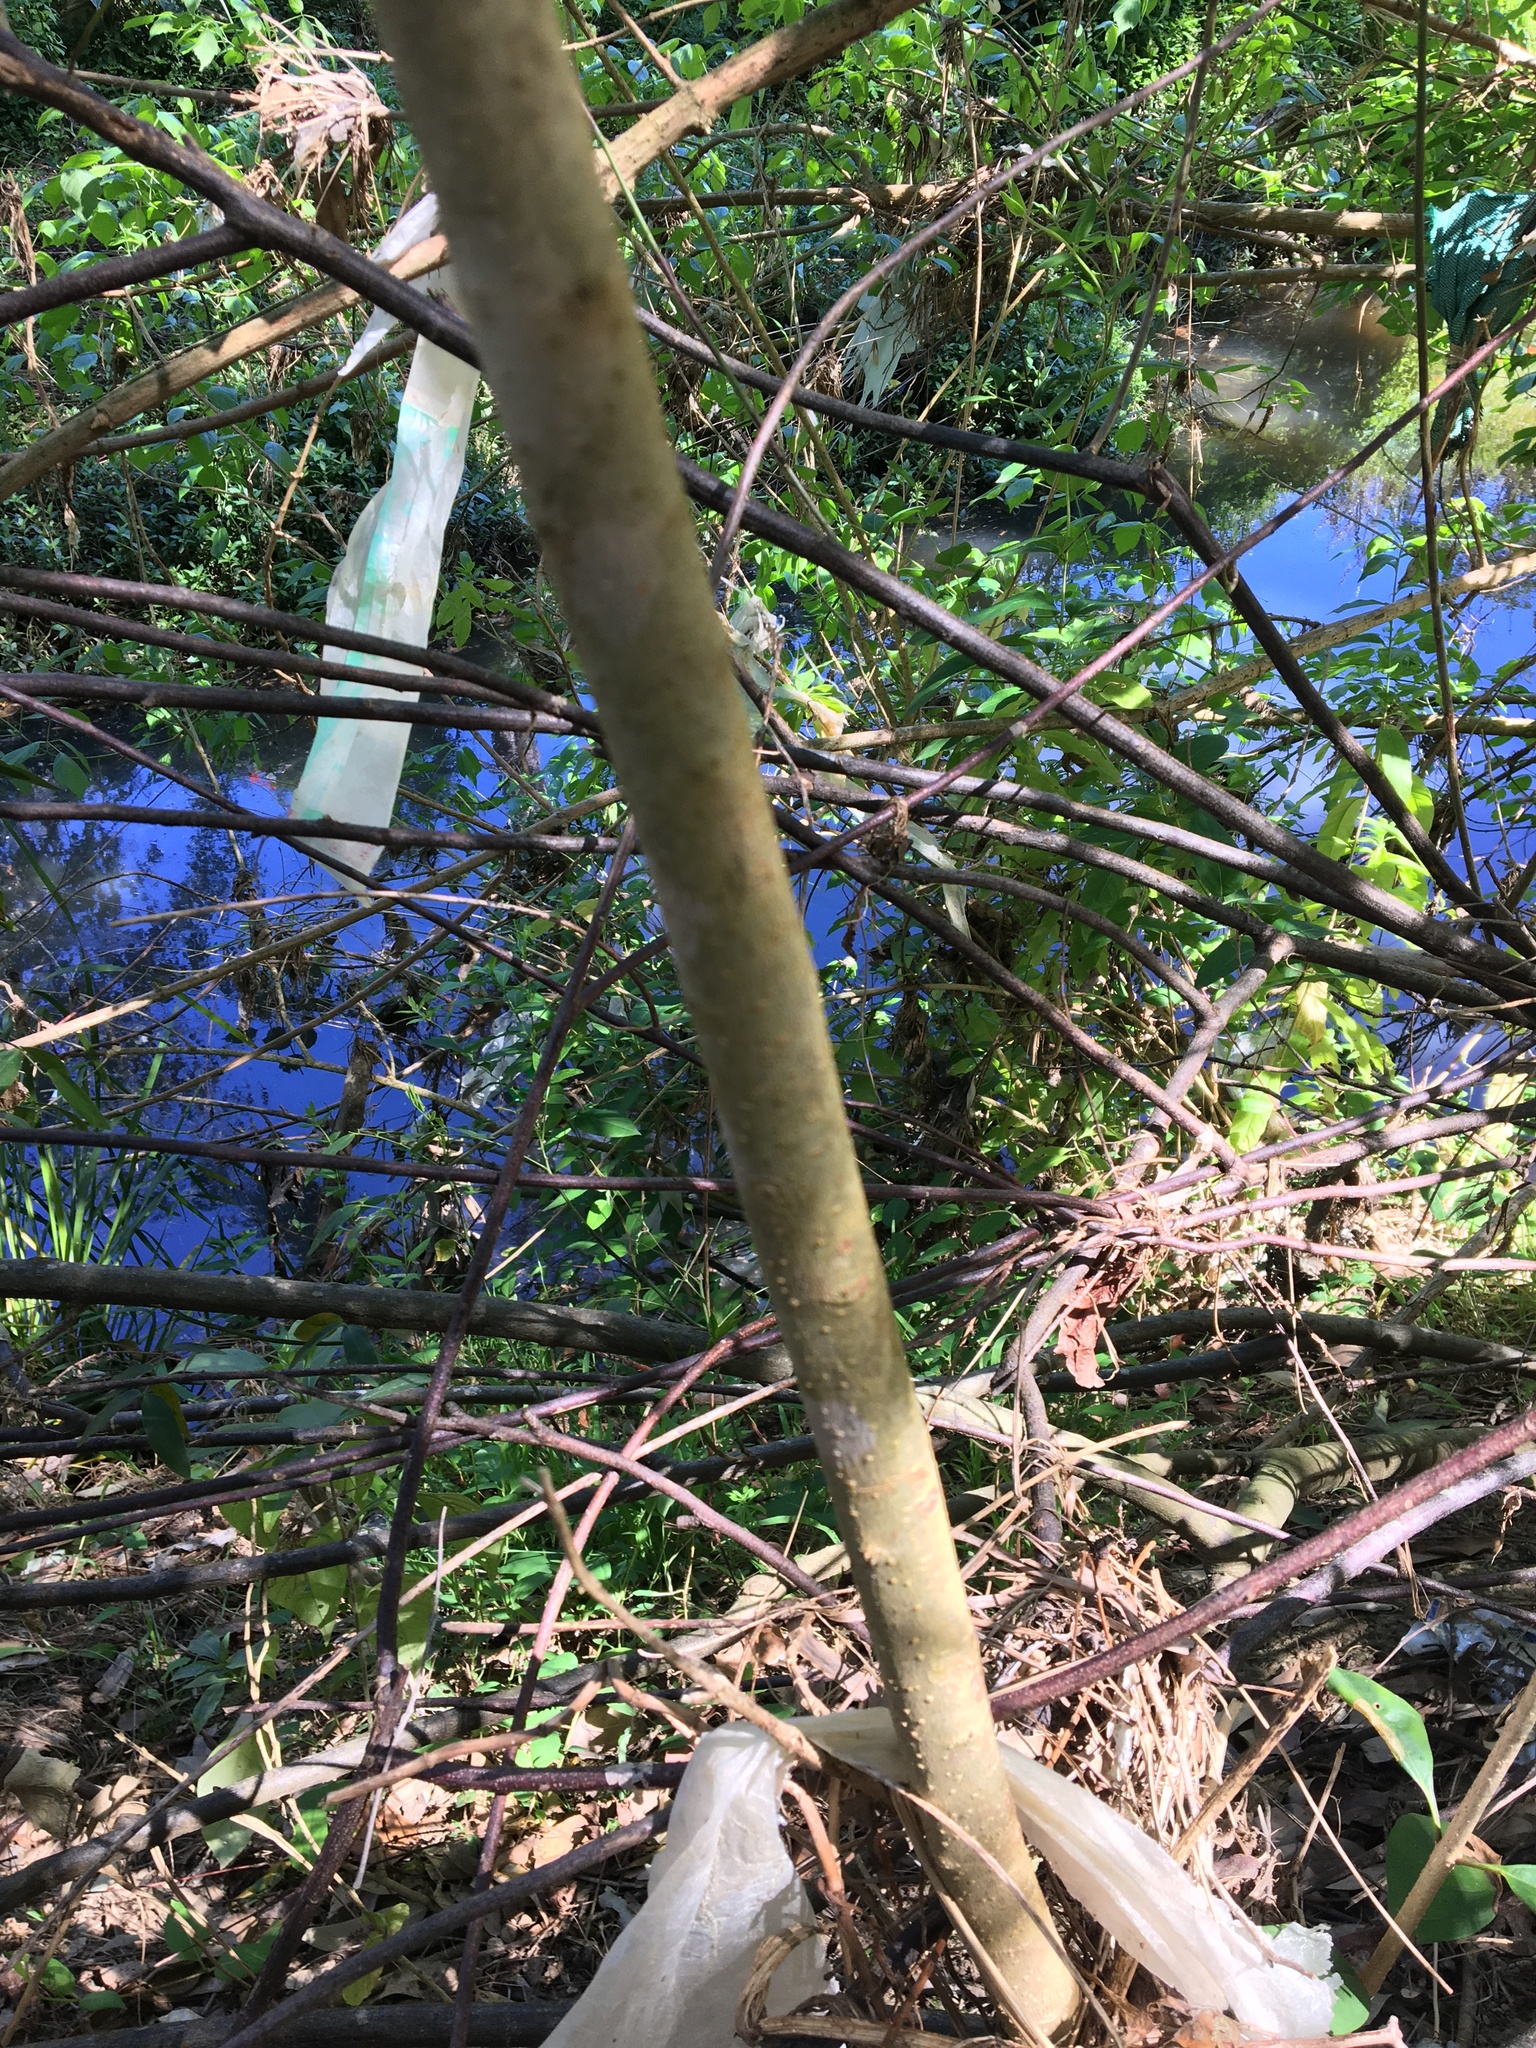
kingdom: Plantae
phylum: Tracheophyta
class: Magnoliopsida
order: Lamiales
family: Oleaceae
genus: Ligustrum
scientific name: Ligustrum lucidum
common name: Glossy privet
